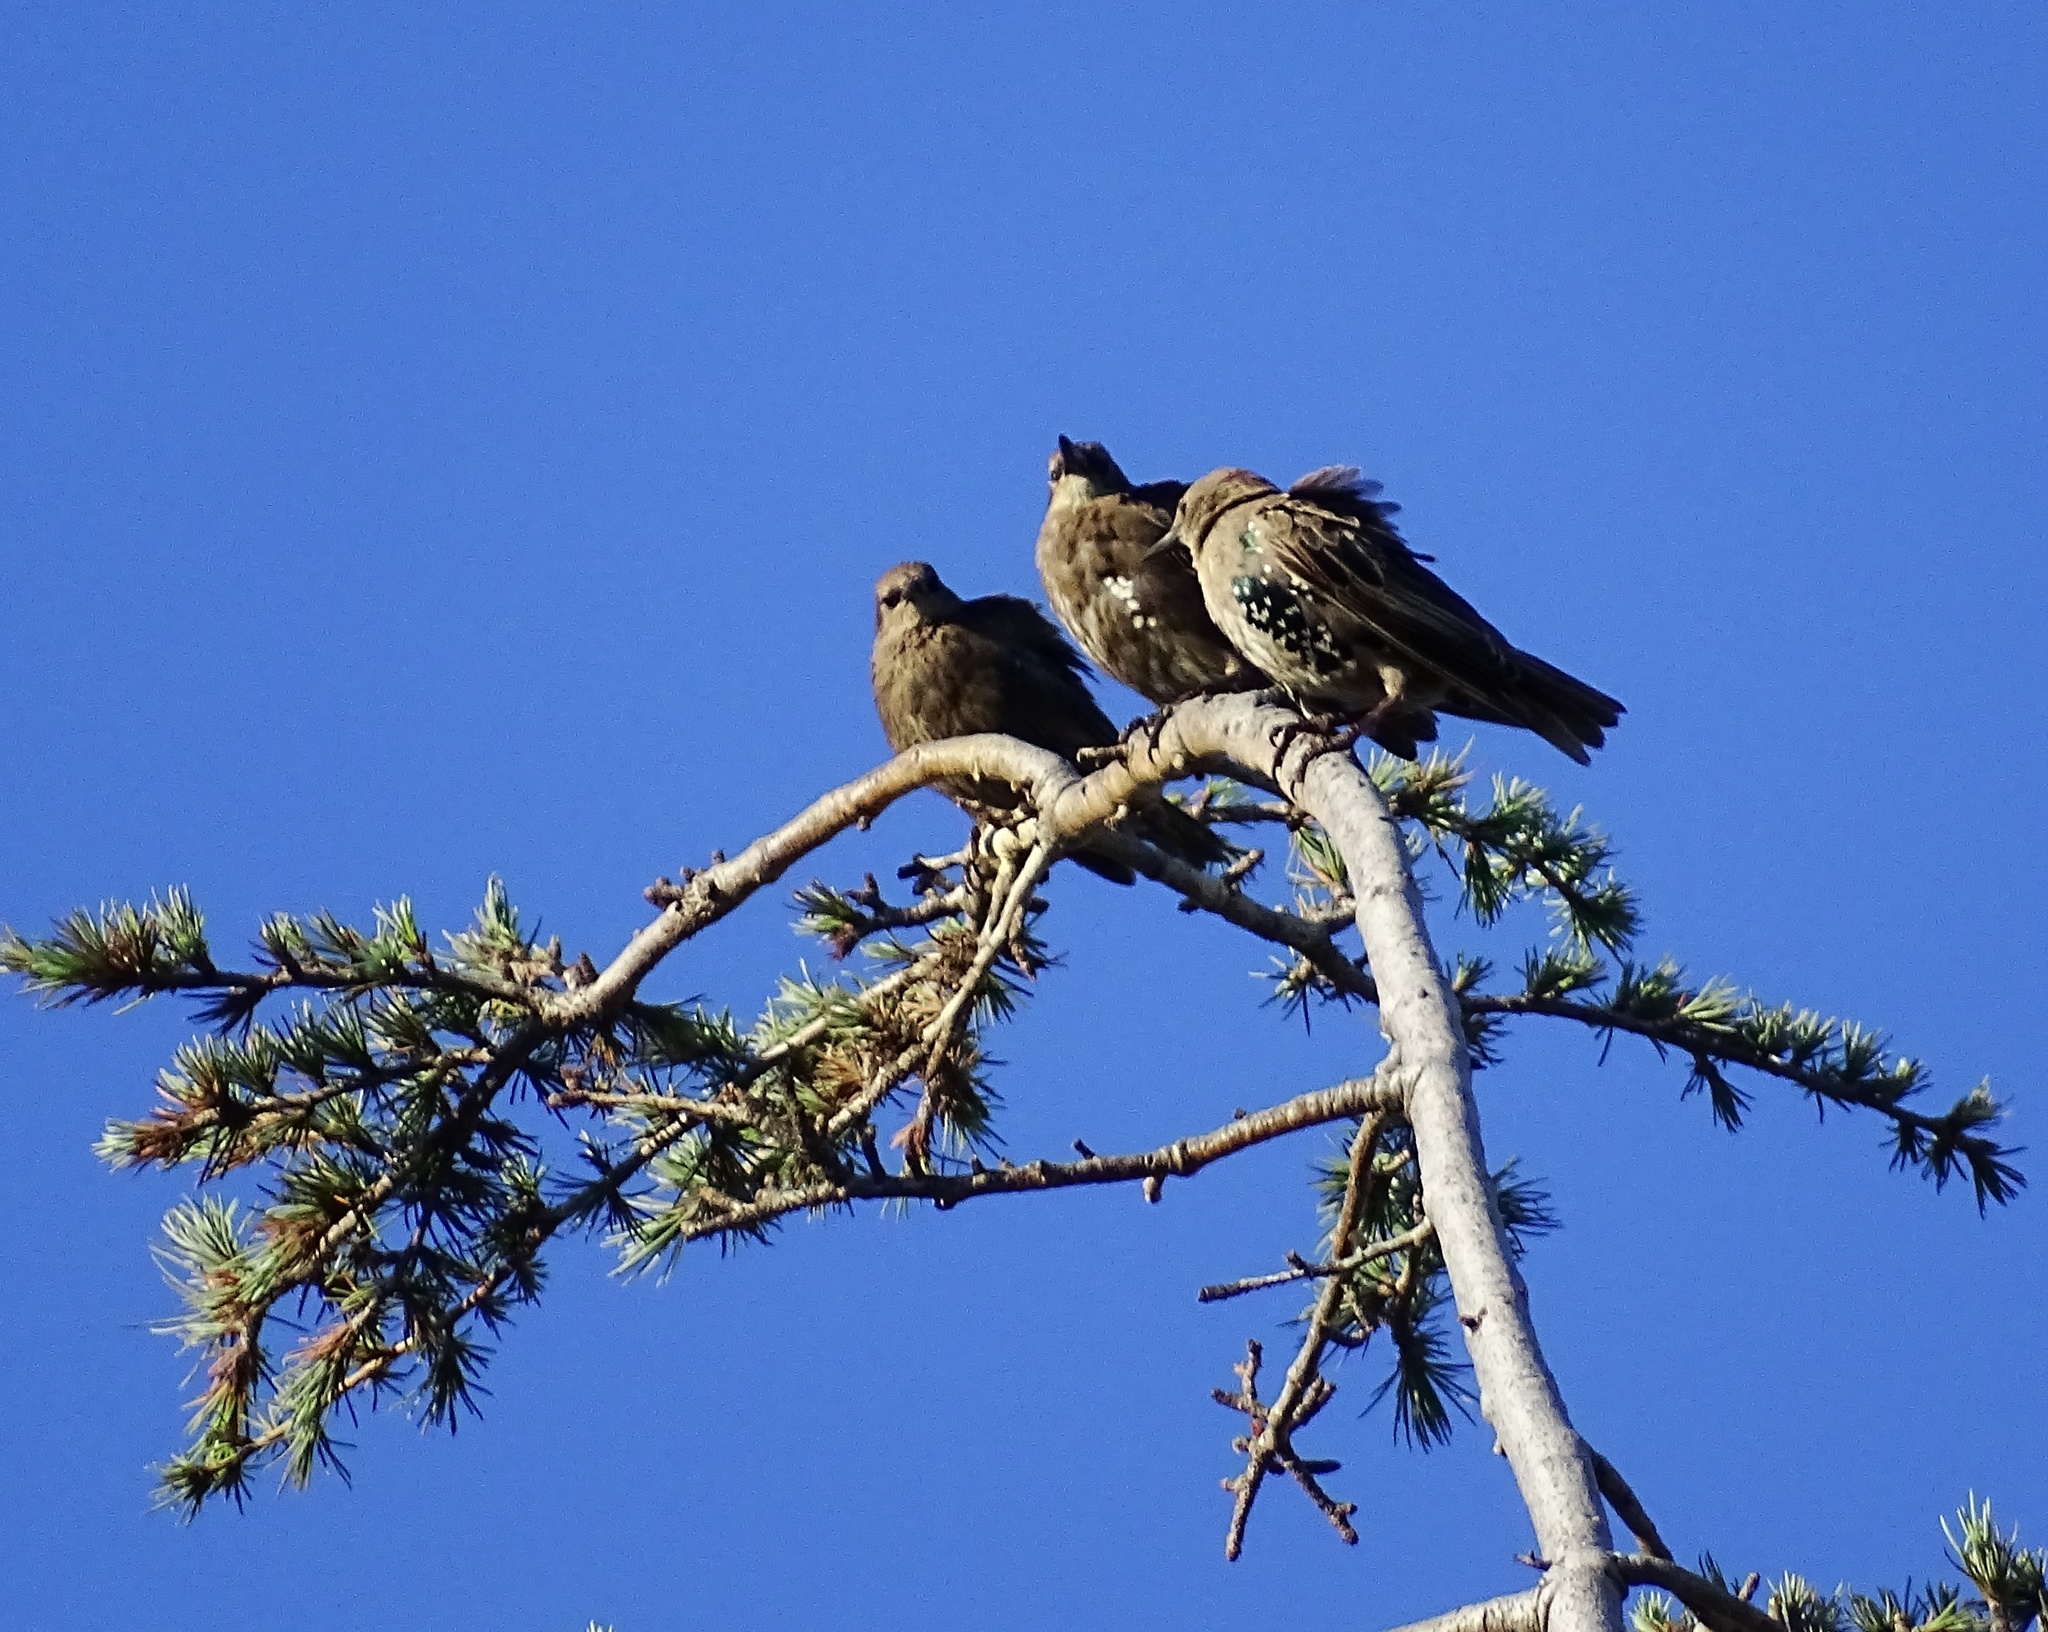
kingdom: Animalia
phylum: Chordata
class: Aves
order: Passeriformes
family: Sturnidae
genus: Sturnus
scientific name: Sturnus vulgaris
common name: Common starling
